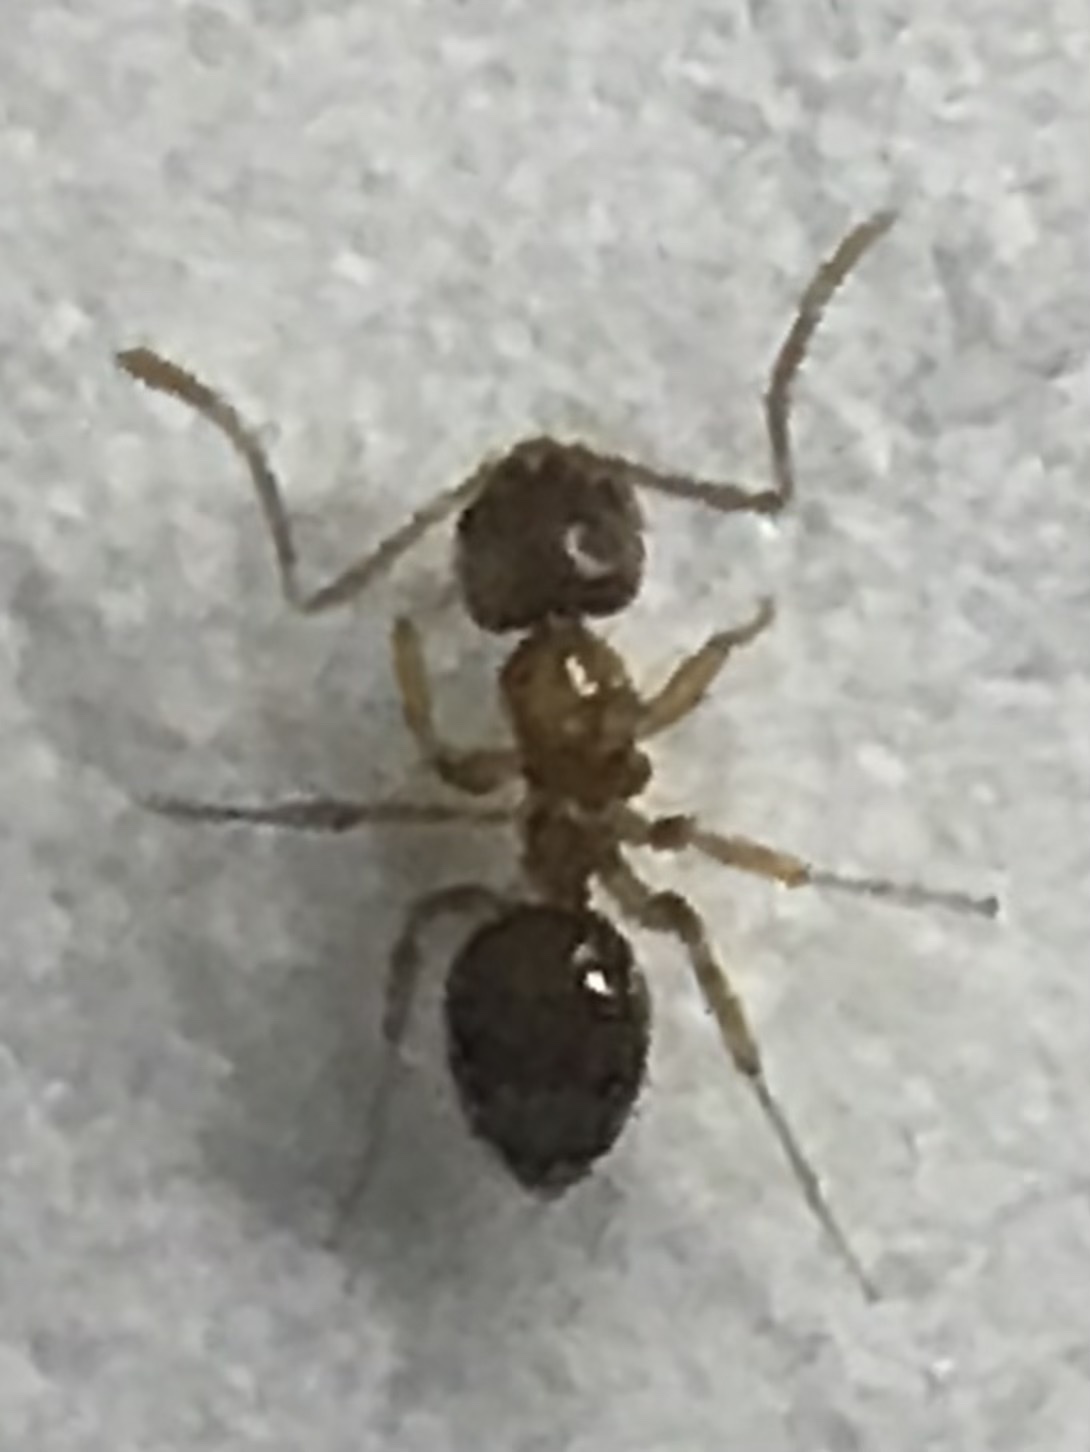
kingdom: Animalia
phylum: Arthropoda
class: Insecta
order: Hymenoptera
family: Formicidae
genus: Paratrechina
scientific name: Paratrechina flavipes
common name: Eastern asian formicine ant
